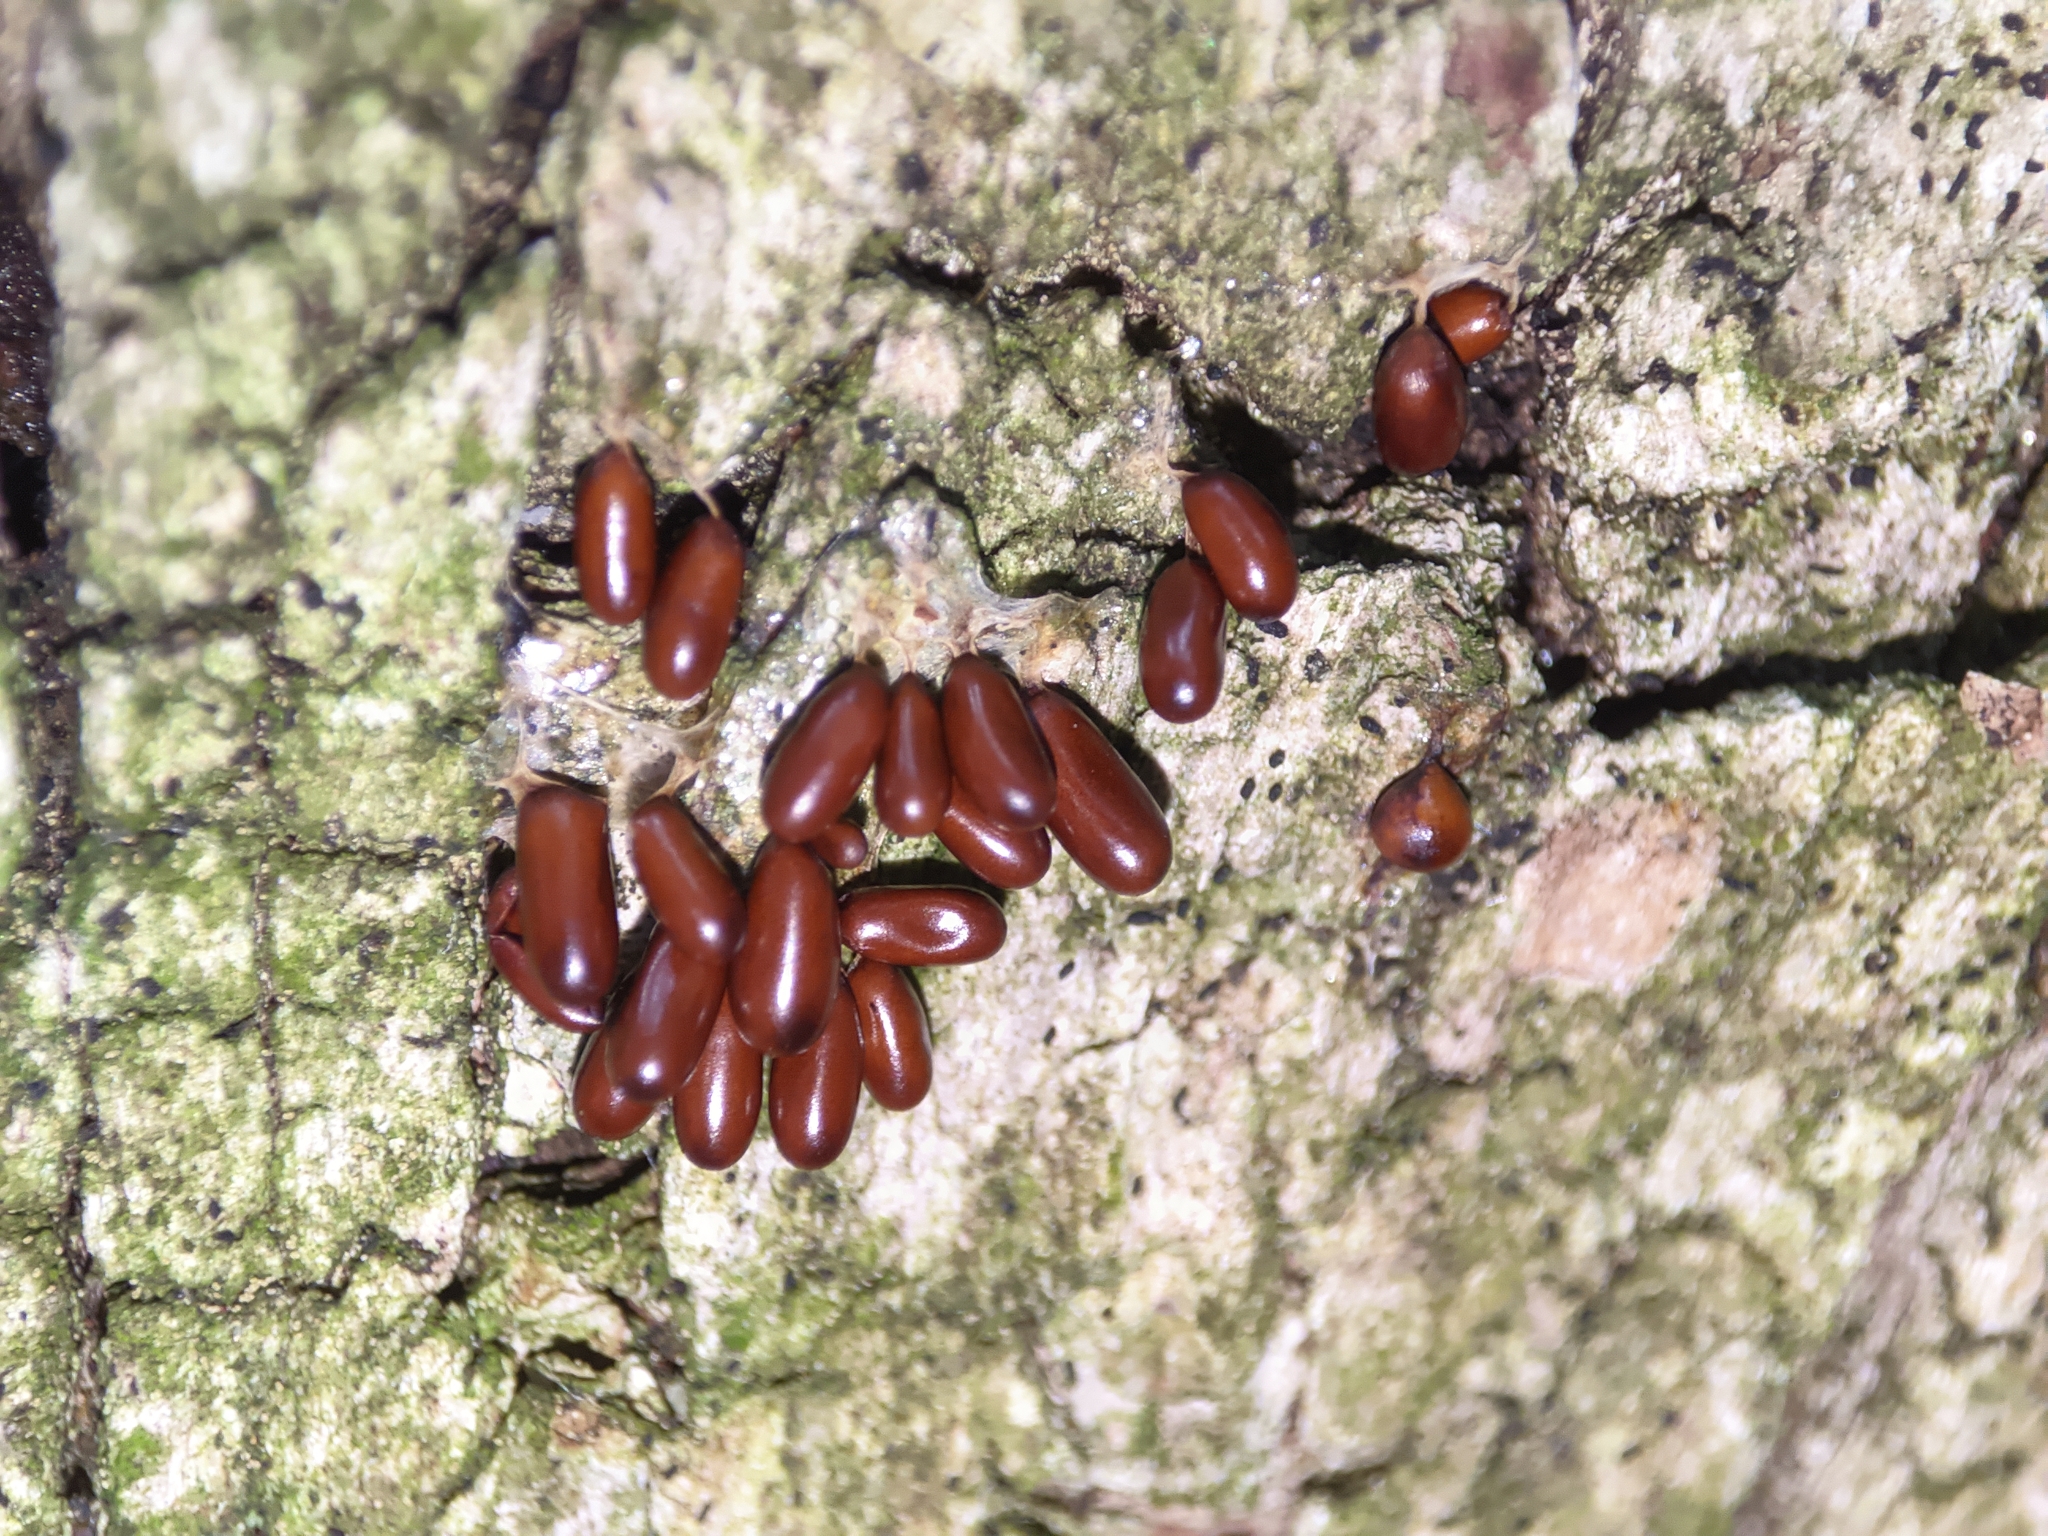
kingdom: Protozoa
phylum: Mycetozoa
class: Myxomycetes
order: Physarales
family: Physaraceae
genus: Leocarpus
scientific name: Leocarpus fragilis
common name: Insect-egg slime
